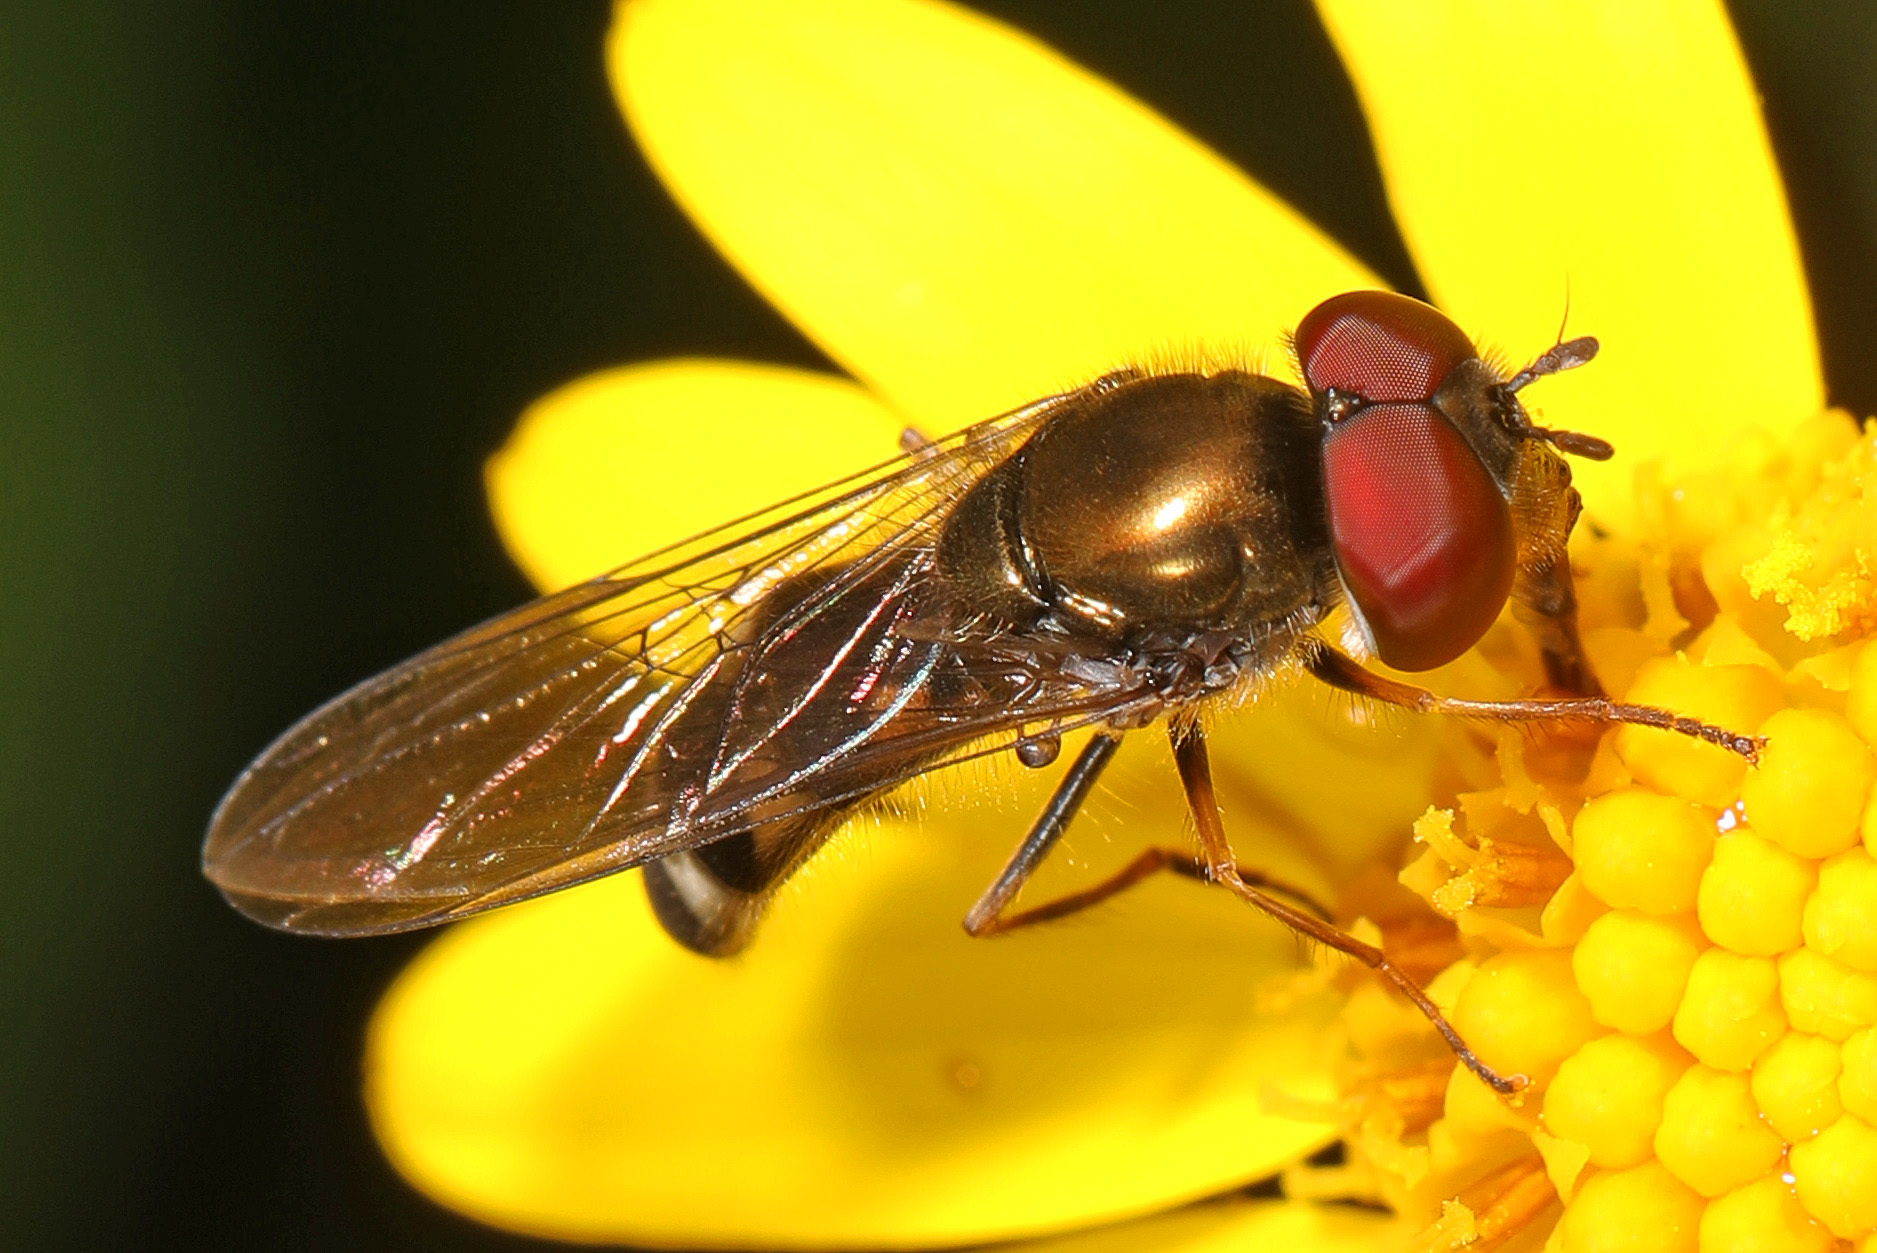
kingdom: Animalia
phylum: Arthropoda
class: Insecta
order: Diptera
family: Syrphidae
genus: Platycheirus
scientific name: Platycheirus obscurus
